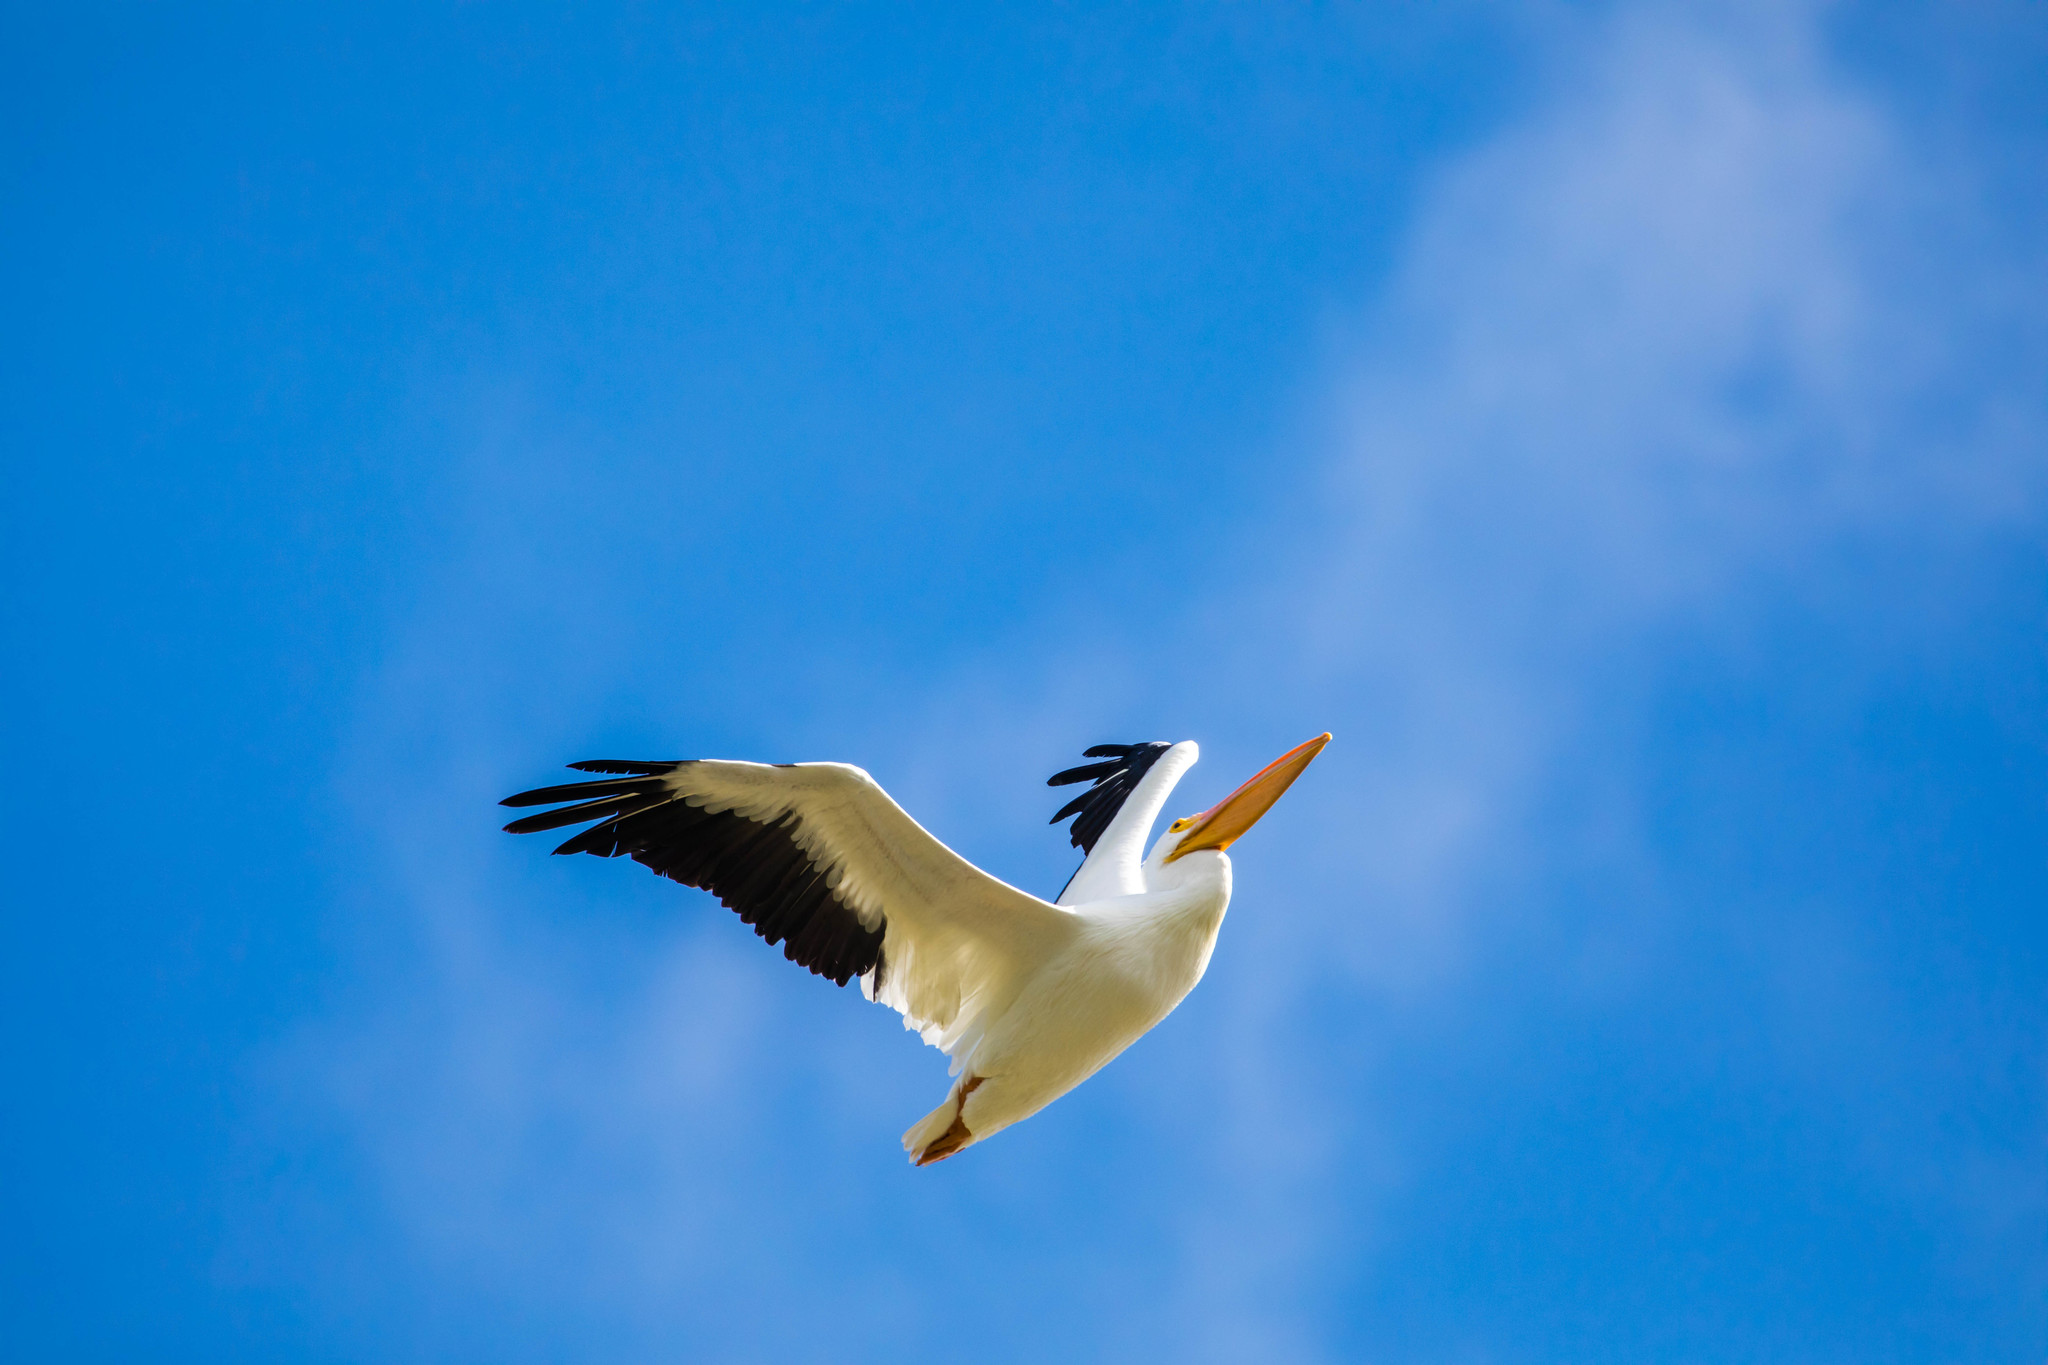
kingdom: Animalia
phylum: Chordata
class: Aves
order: Pelecaniformes
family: Pelecanidae
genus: Pelecanus
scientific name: Pelecanus erythrorhynchos
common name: American white pelican
